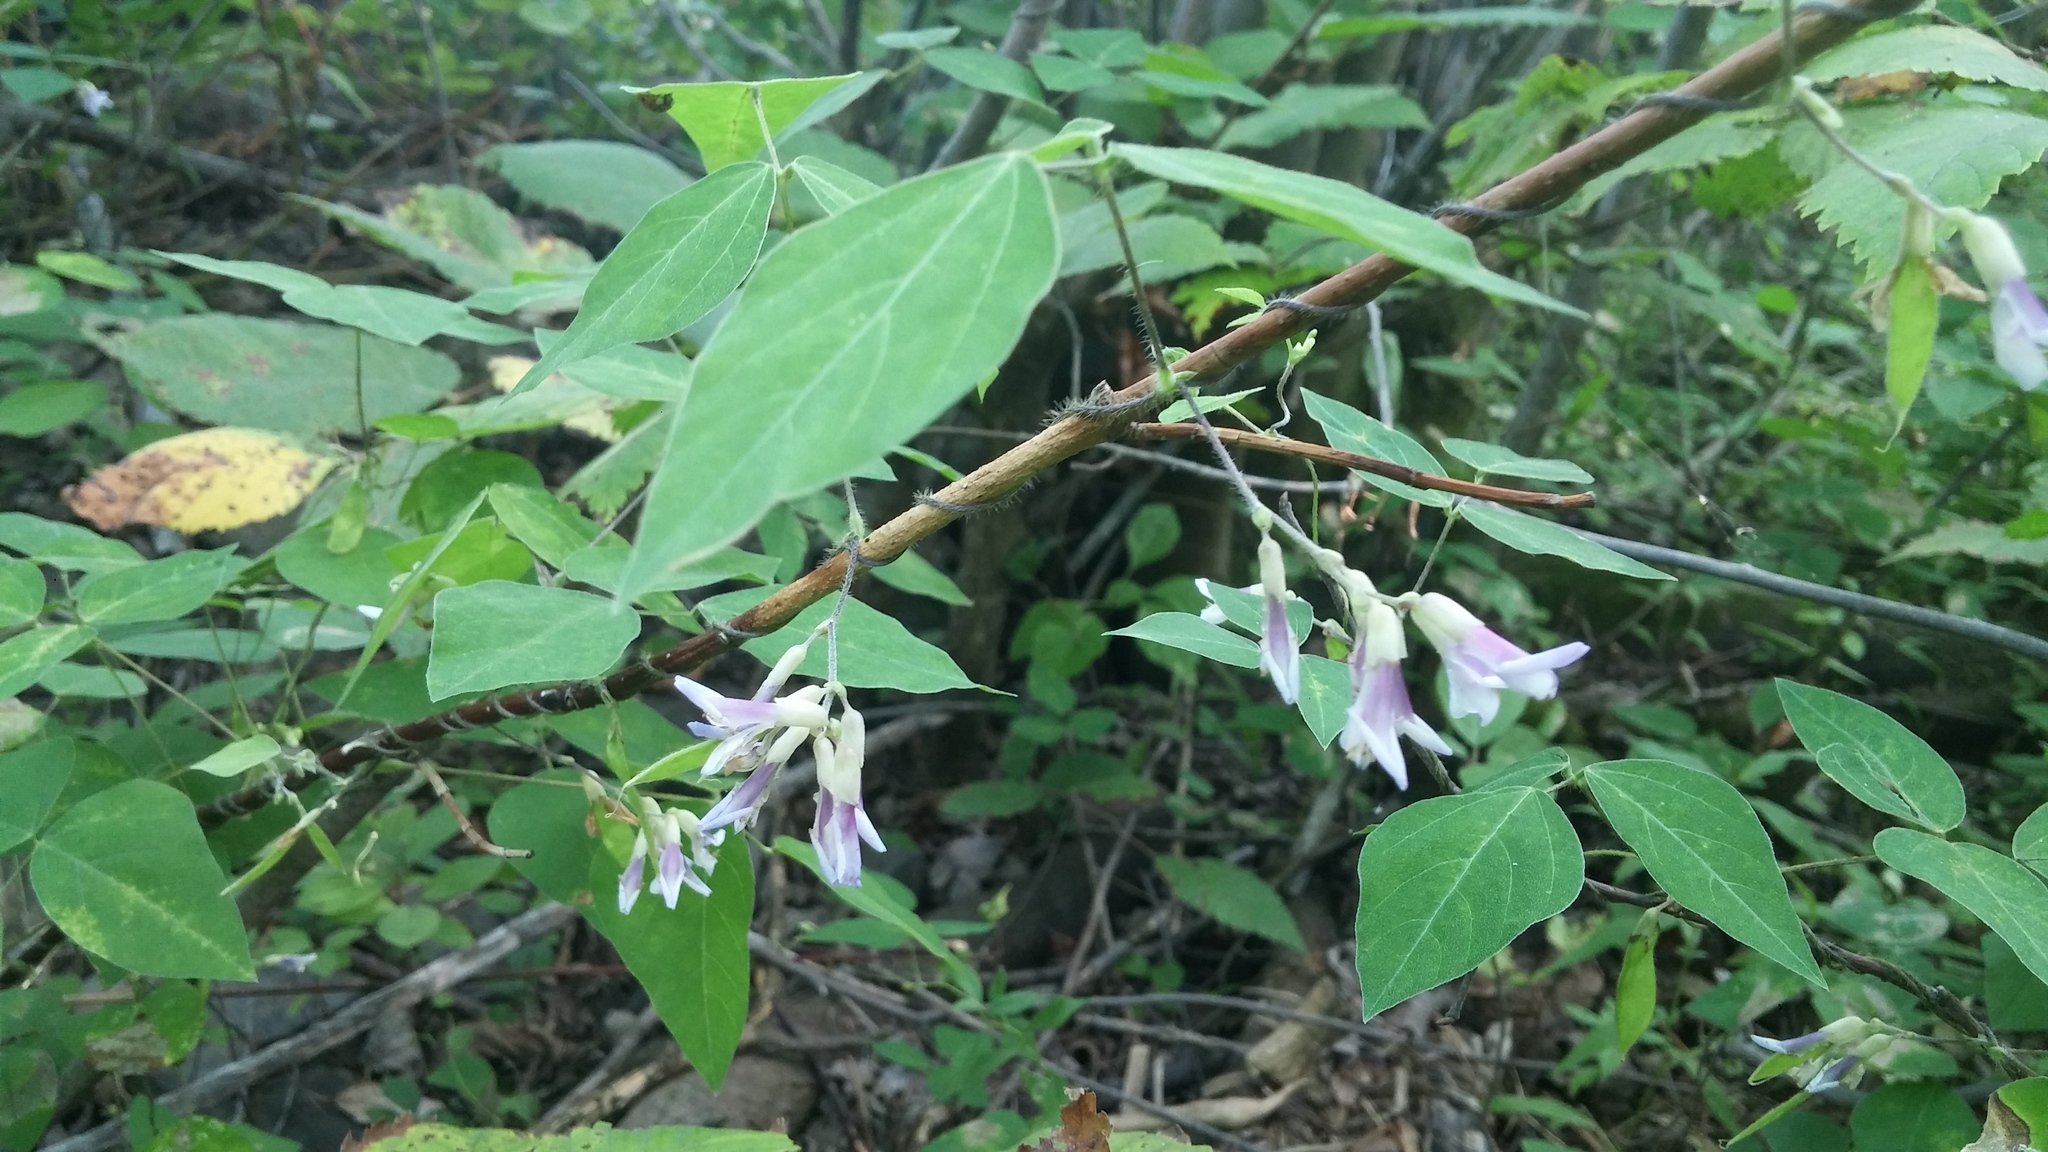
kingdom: Plantae
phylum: Tracheophyta
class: Magnoliopsida
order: Fabales
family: Fabaceae
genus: Amphicarpaea
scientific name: Amphicarpaea bracteata
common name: American hog peanut
